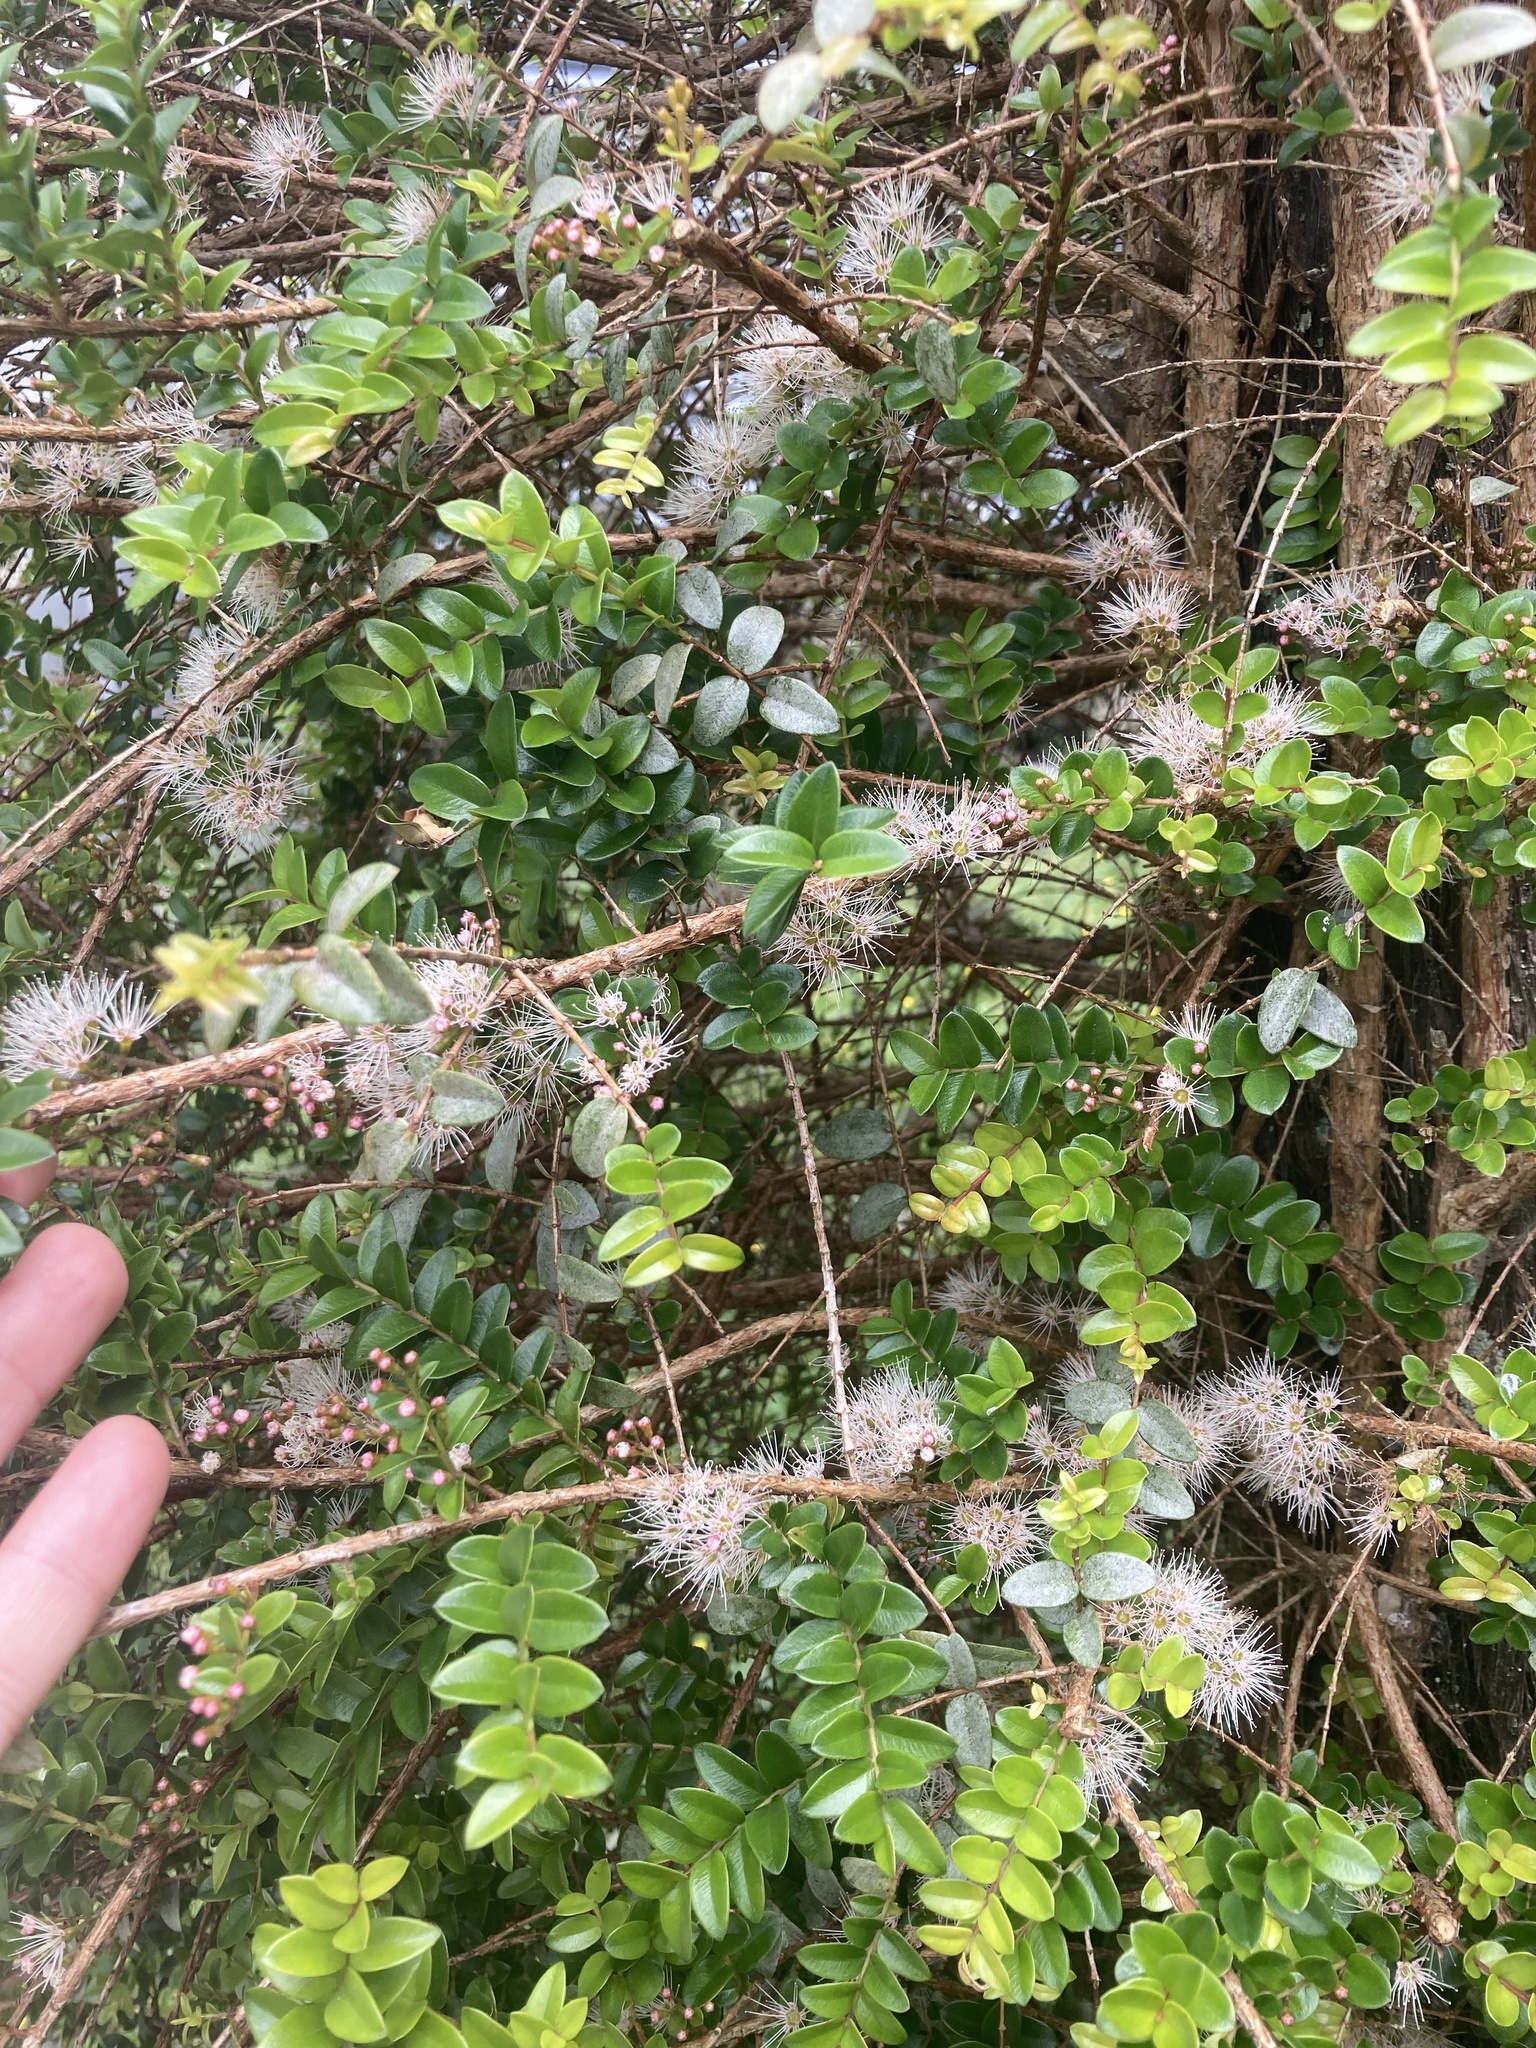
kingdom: Plantae
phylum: Tracheophyta
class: Magnoliopsida
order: Myrtales
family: Myrtaceae
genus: Metrosideros
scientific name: Metrosideros diffusa
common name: Small ratavine
